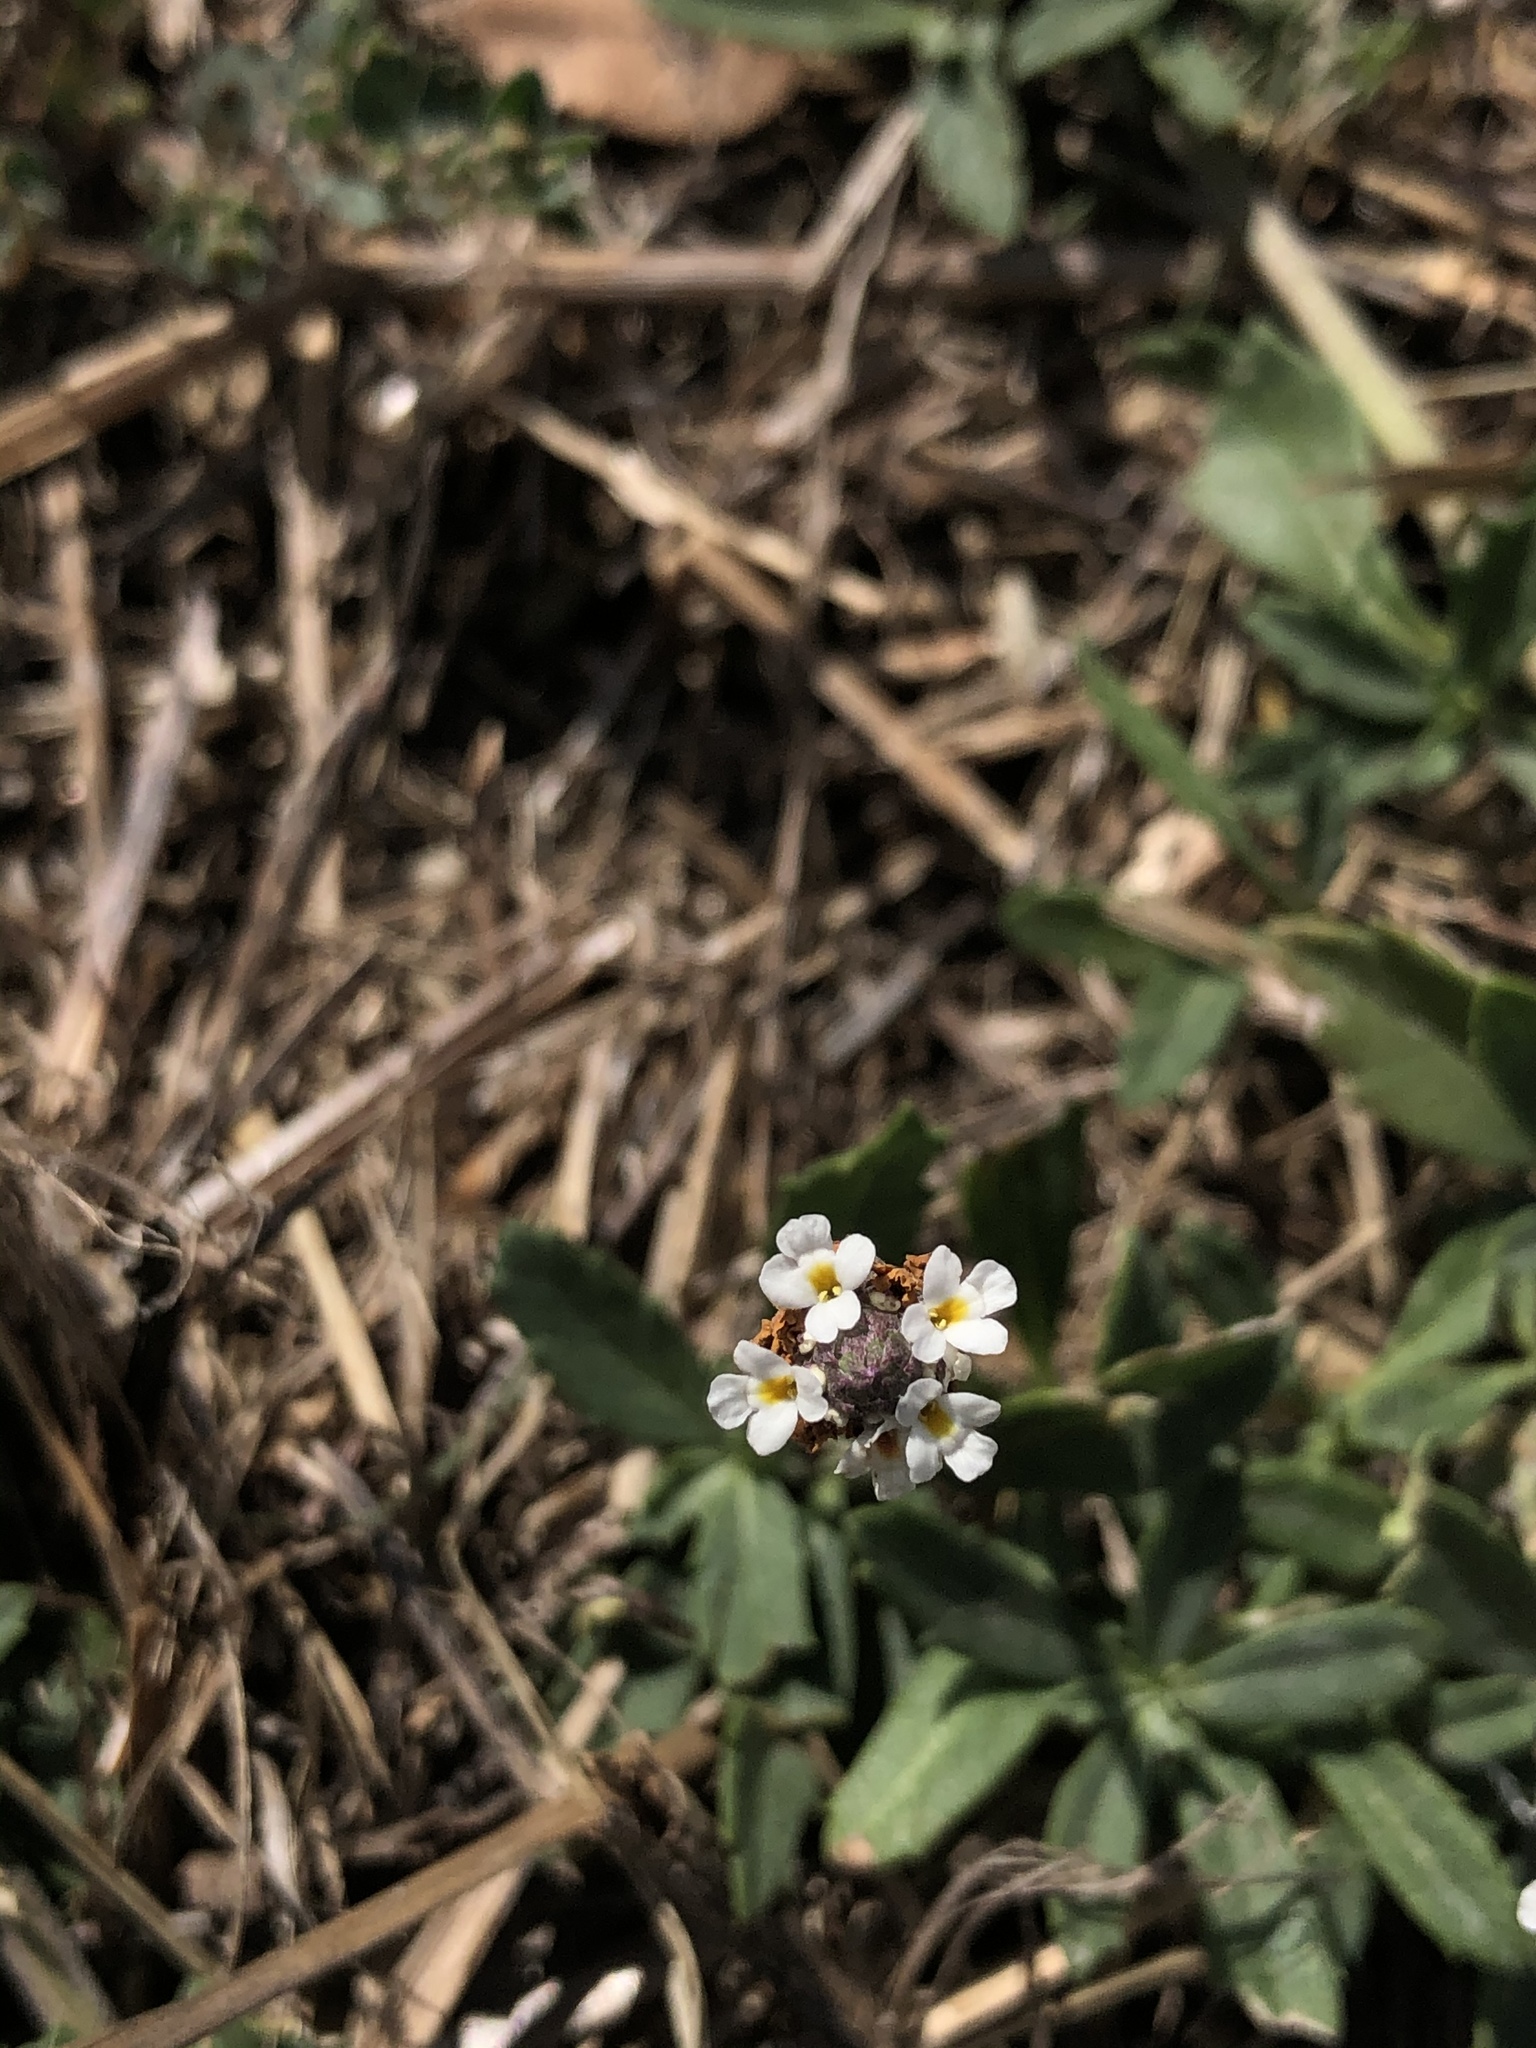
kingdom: Plantae
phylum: Tracheophyta
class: Magnoliopsida
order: Lamiales
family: Verbenaceae
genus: Phyla
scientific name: Phyla nodiflora
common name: Frogfruit
